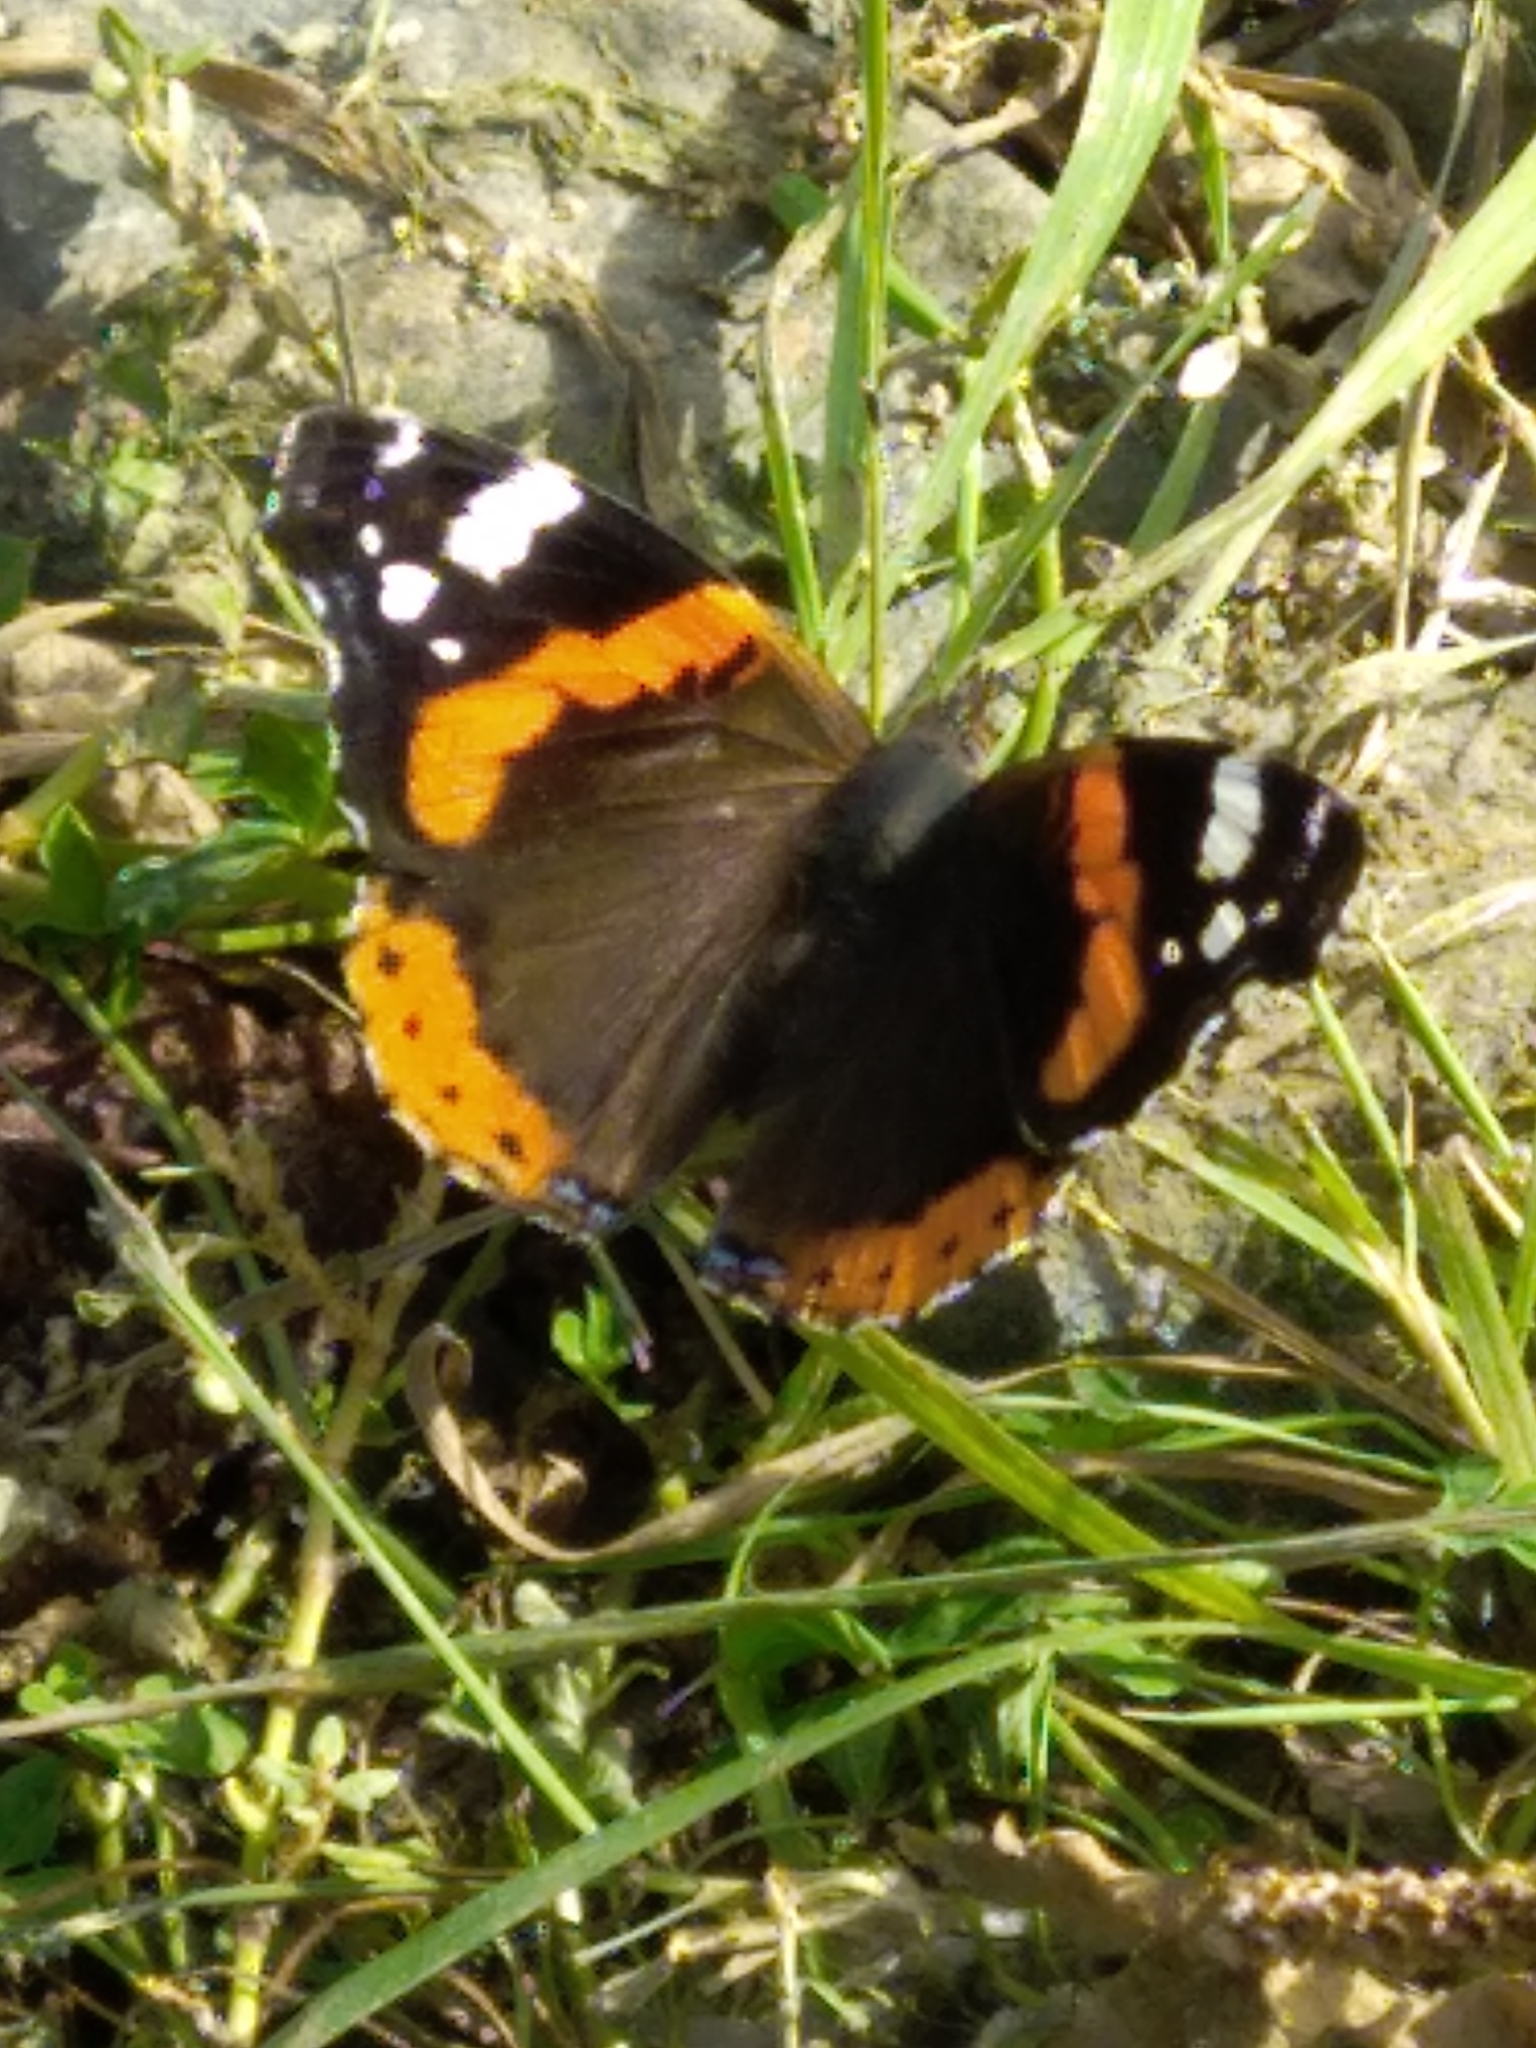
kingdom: Animalia
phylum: Arthropoda
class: Insecta
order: Lepidoptera
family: Nymphalidae
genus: Vanessa
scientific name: Vanessa atalanta
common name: Red admiral
